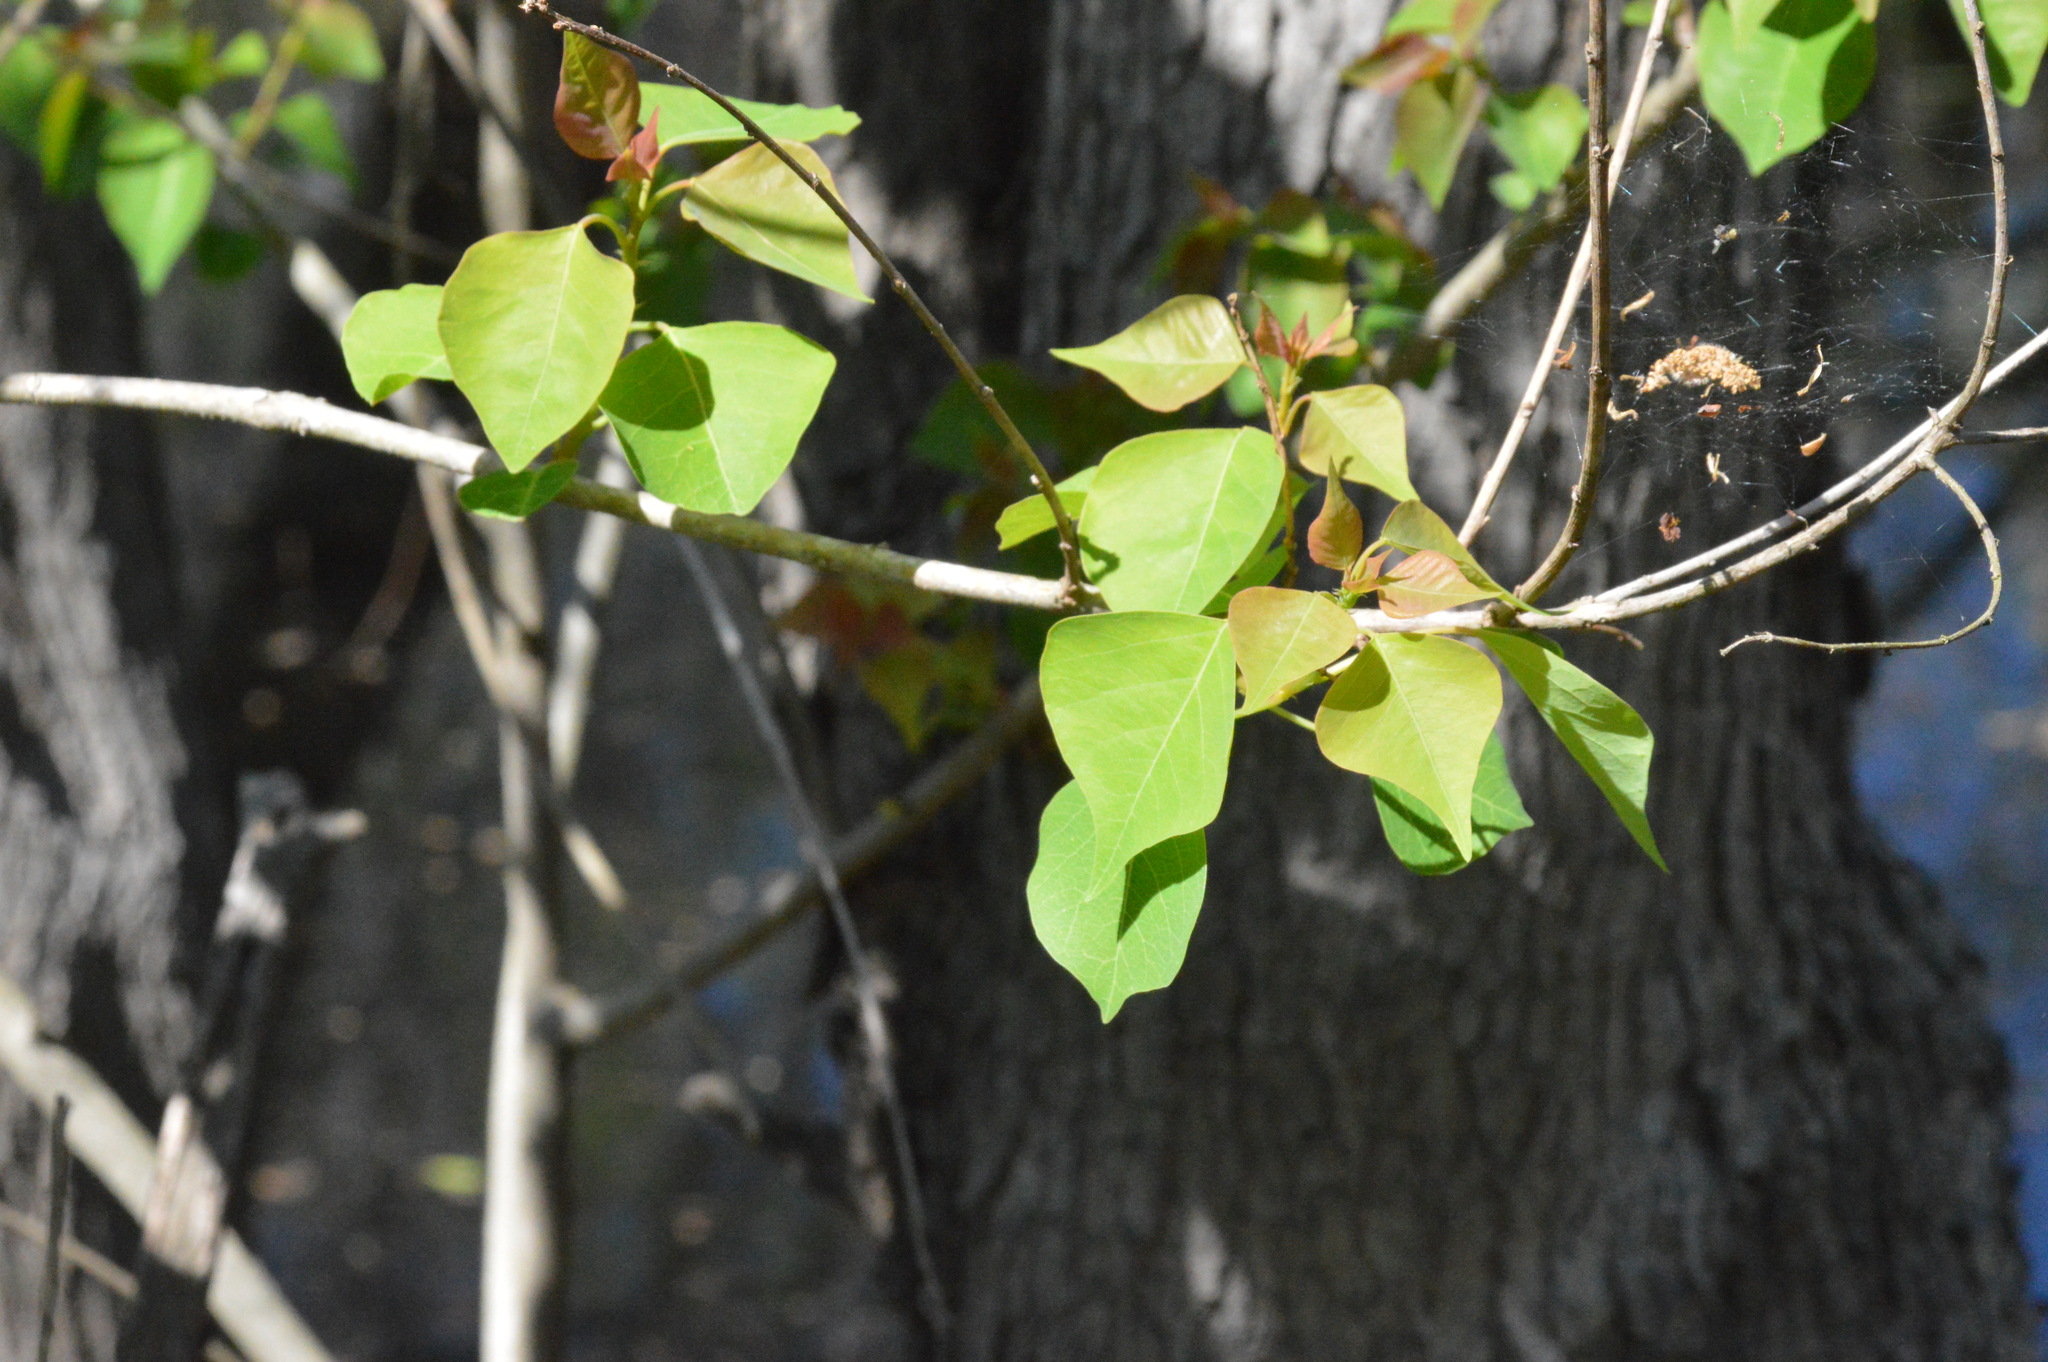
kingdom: Plantae
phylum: Tracheophyta
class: Magnoliopsida
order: Malpighiales
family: Euphorbiaceae
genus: Triadica
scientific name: Triadica sebifera
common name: Chinese tallow
